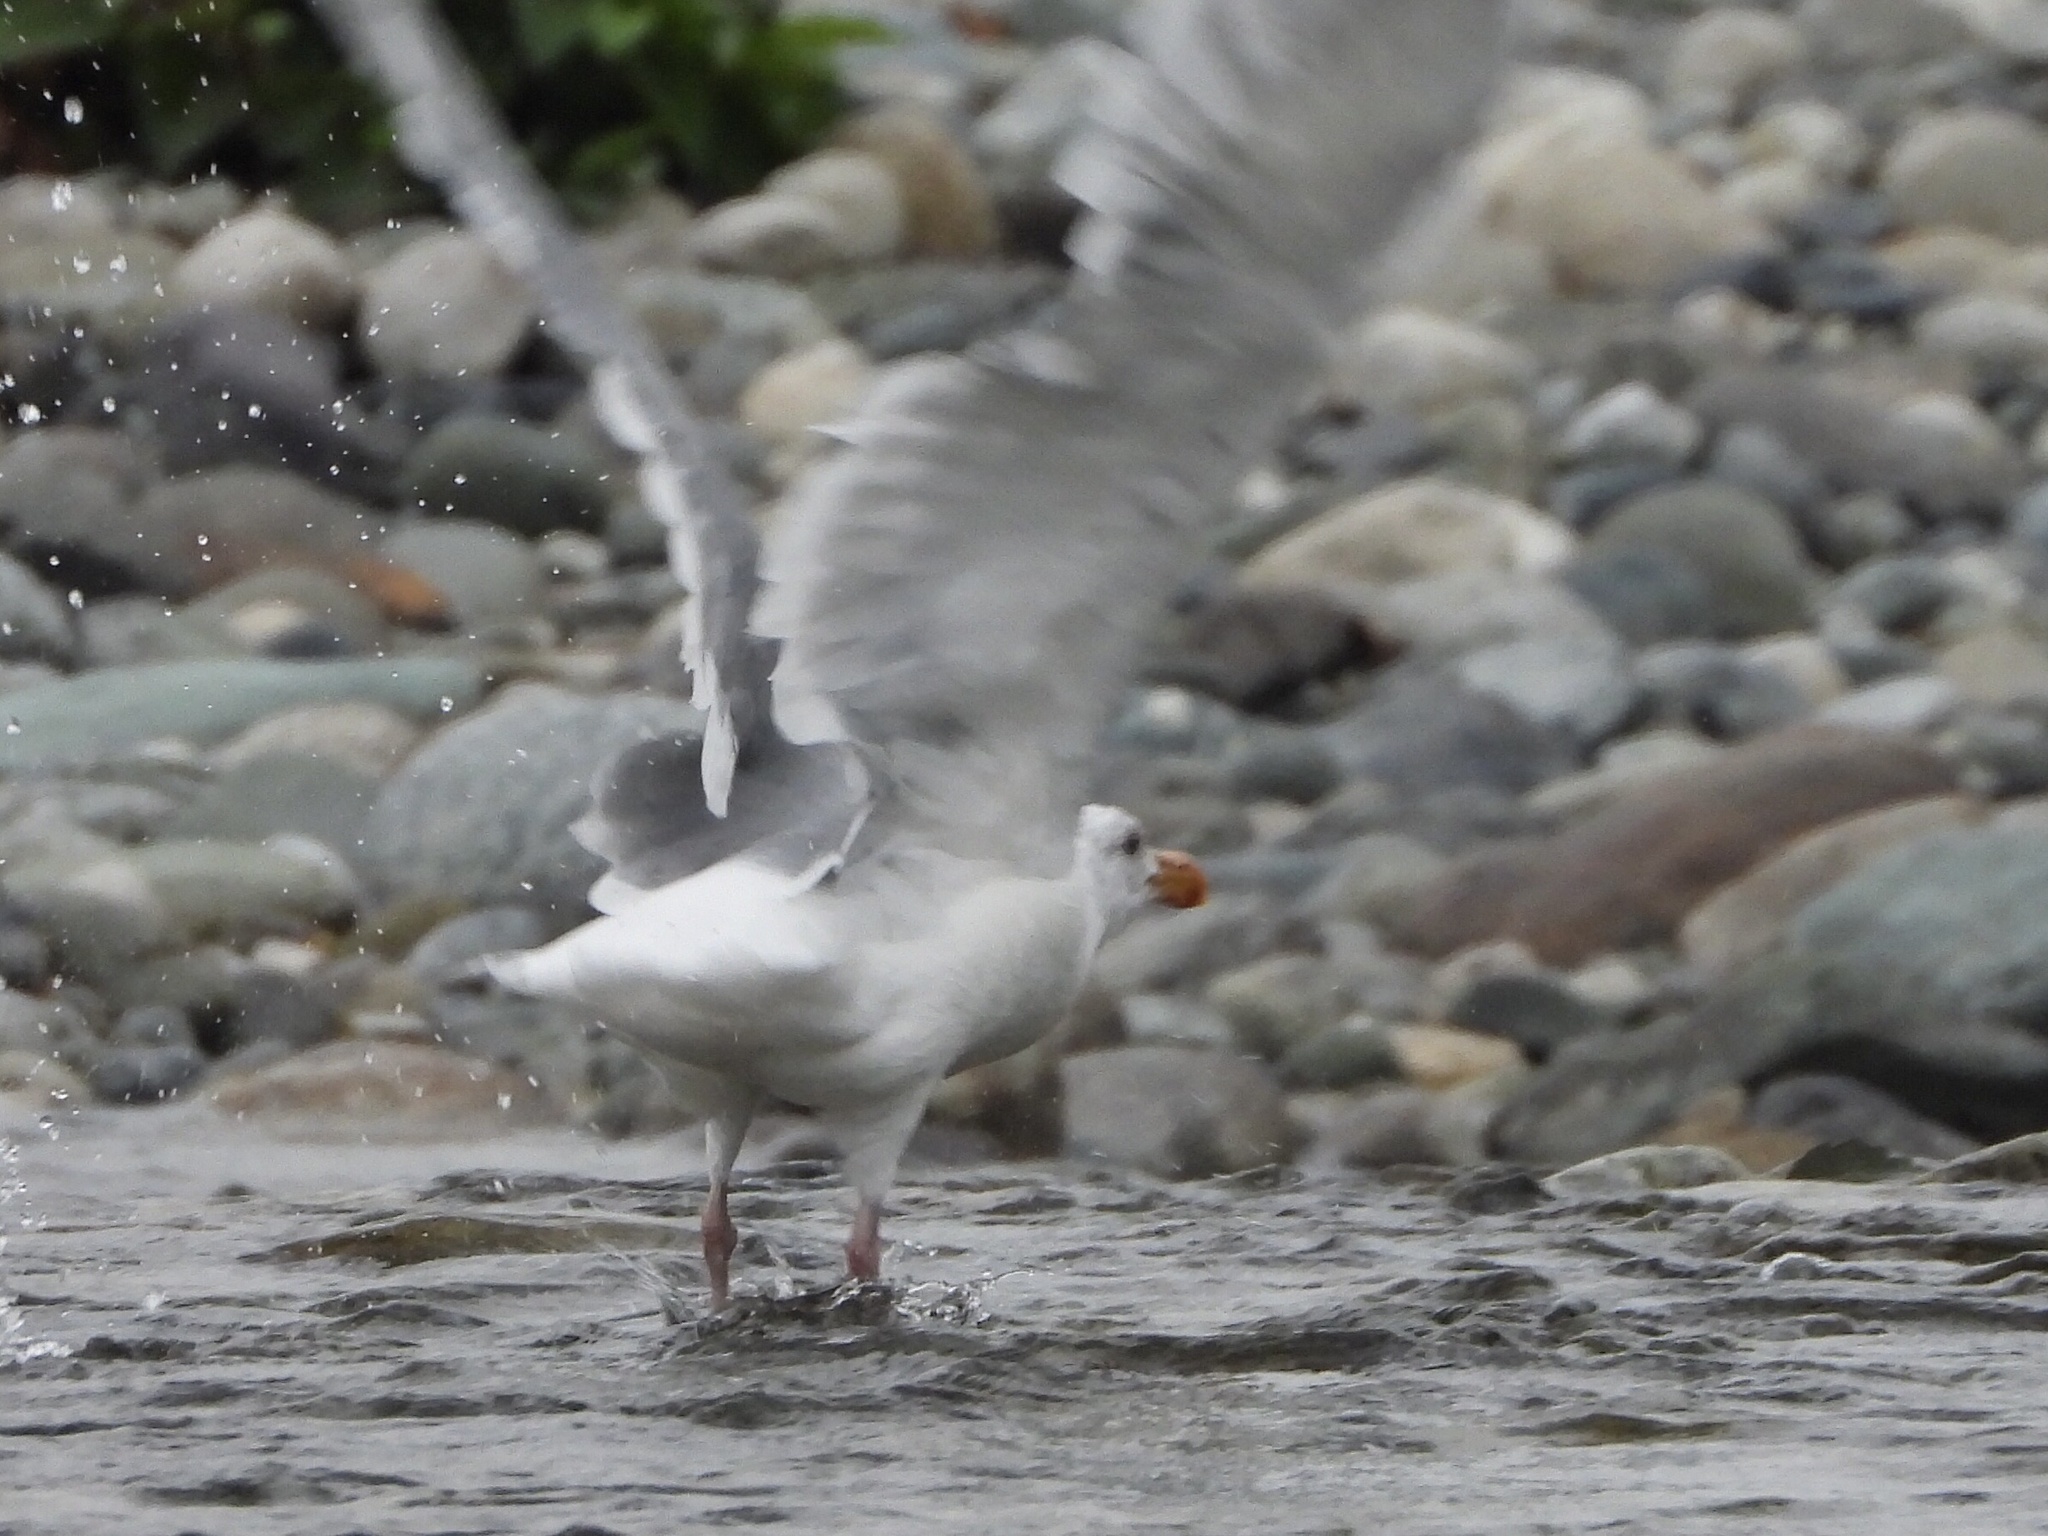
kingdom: Animalia
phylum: Chordata
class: Aves
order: Charadriiformes
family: Laridae
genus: Larus
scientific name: Larus glaucescens
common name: Glaucous-winged gull
